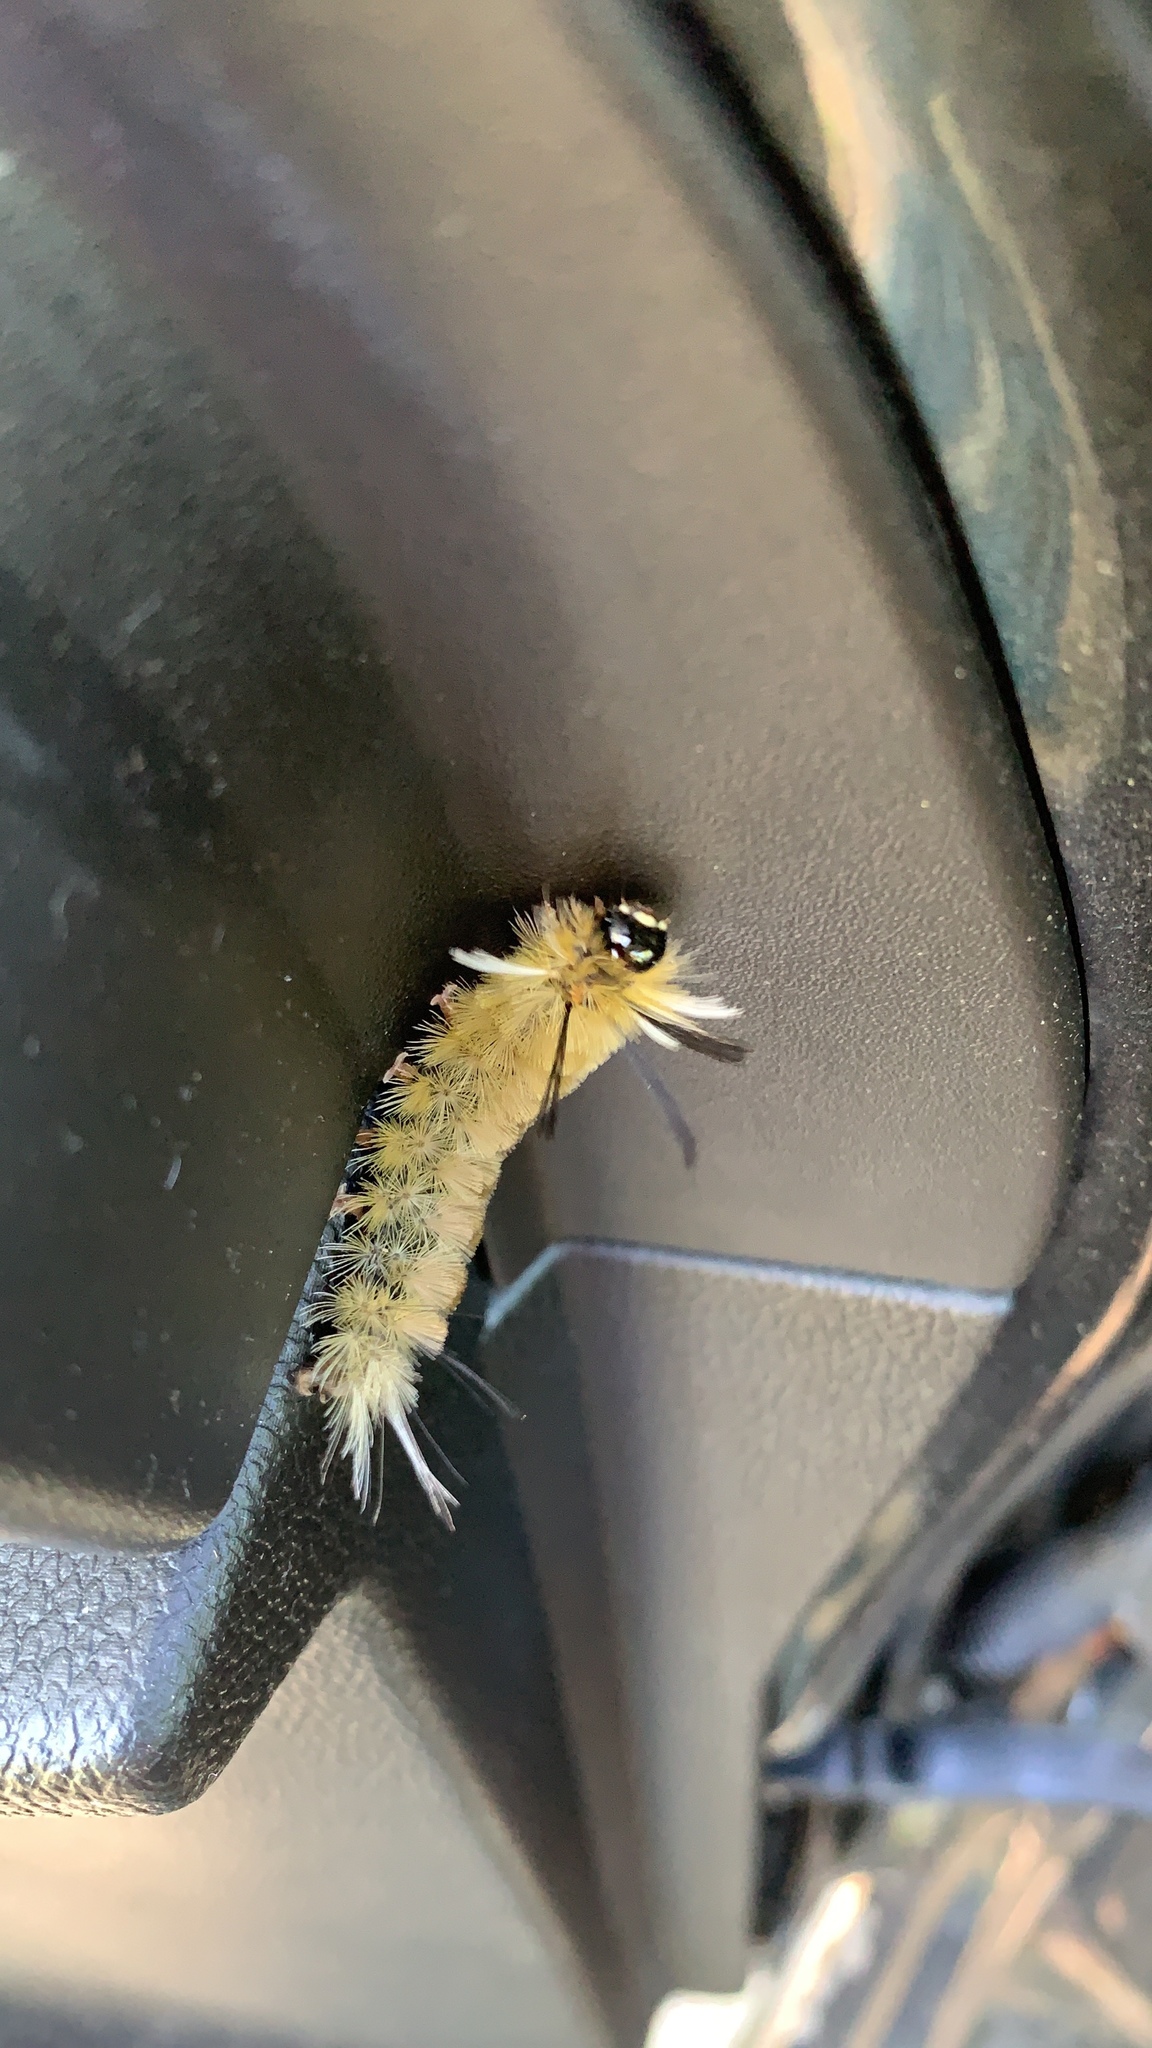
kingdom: Animalia
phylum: Arthropoda
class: Insecta
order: Lepidoptera
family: Erebidae
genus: Halysidota
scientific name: Halysidota tessellaris
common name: Banded tussock moth
